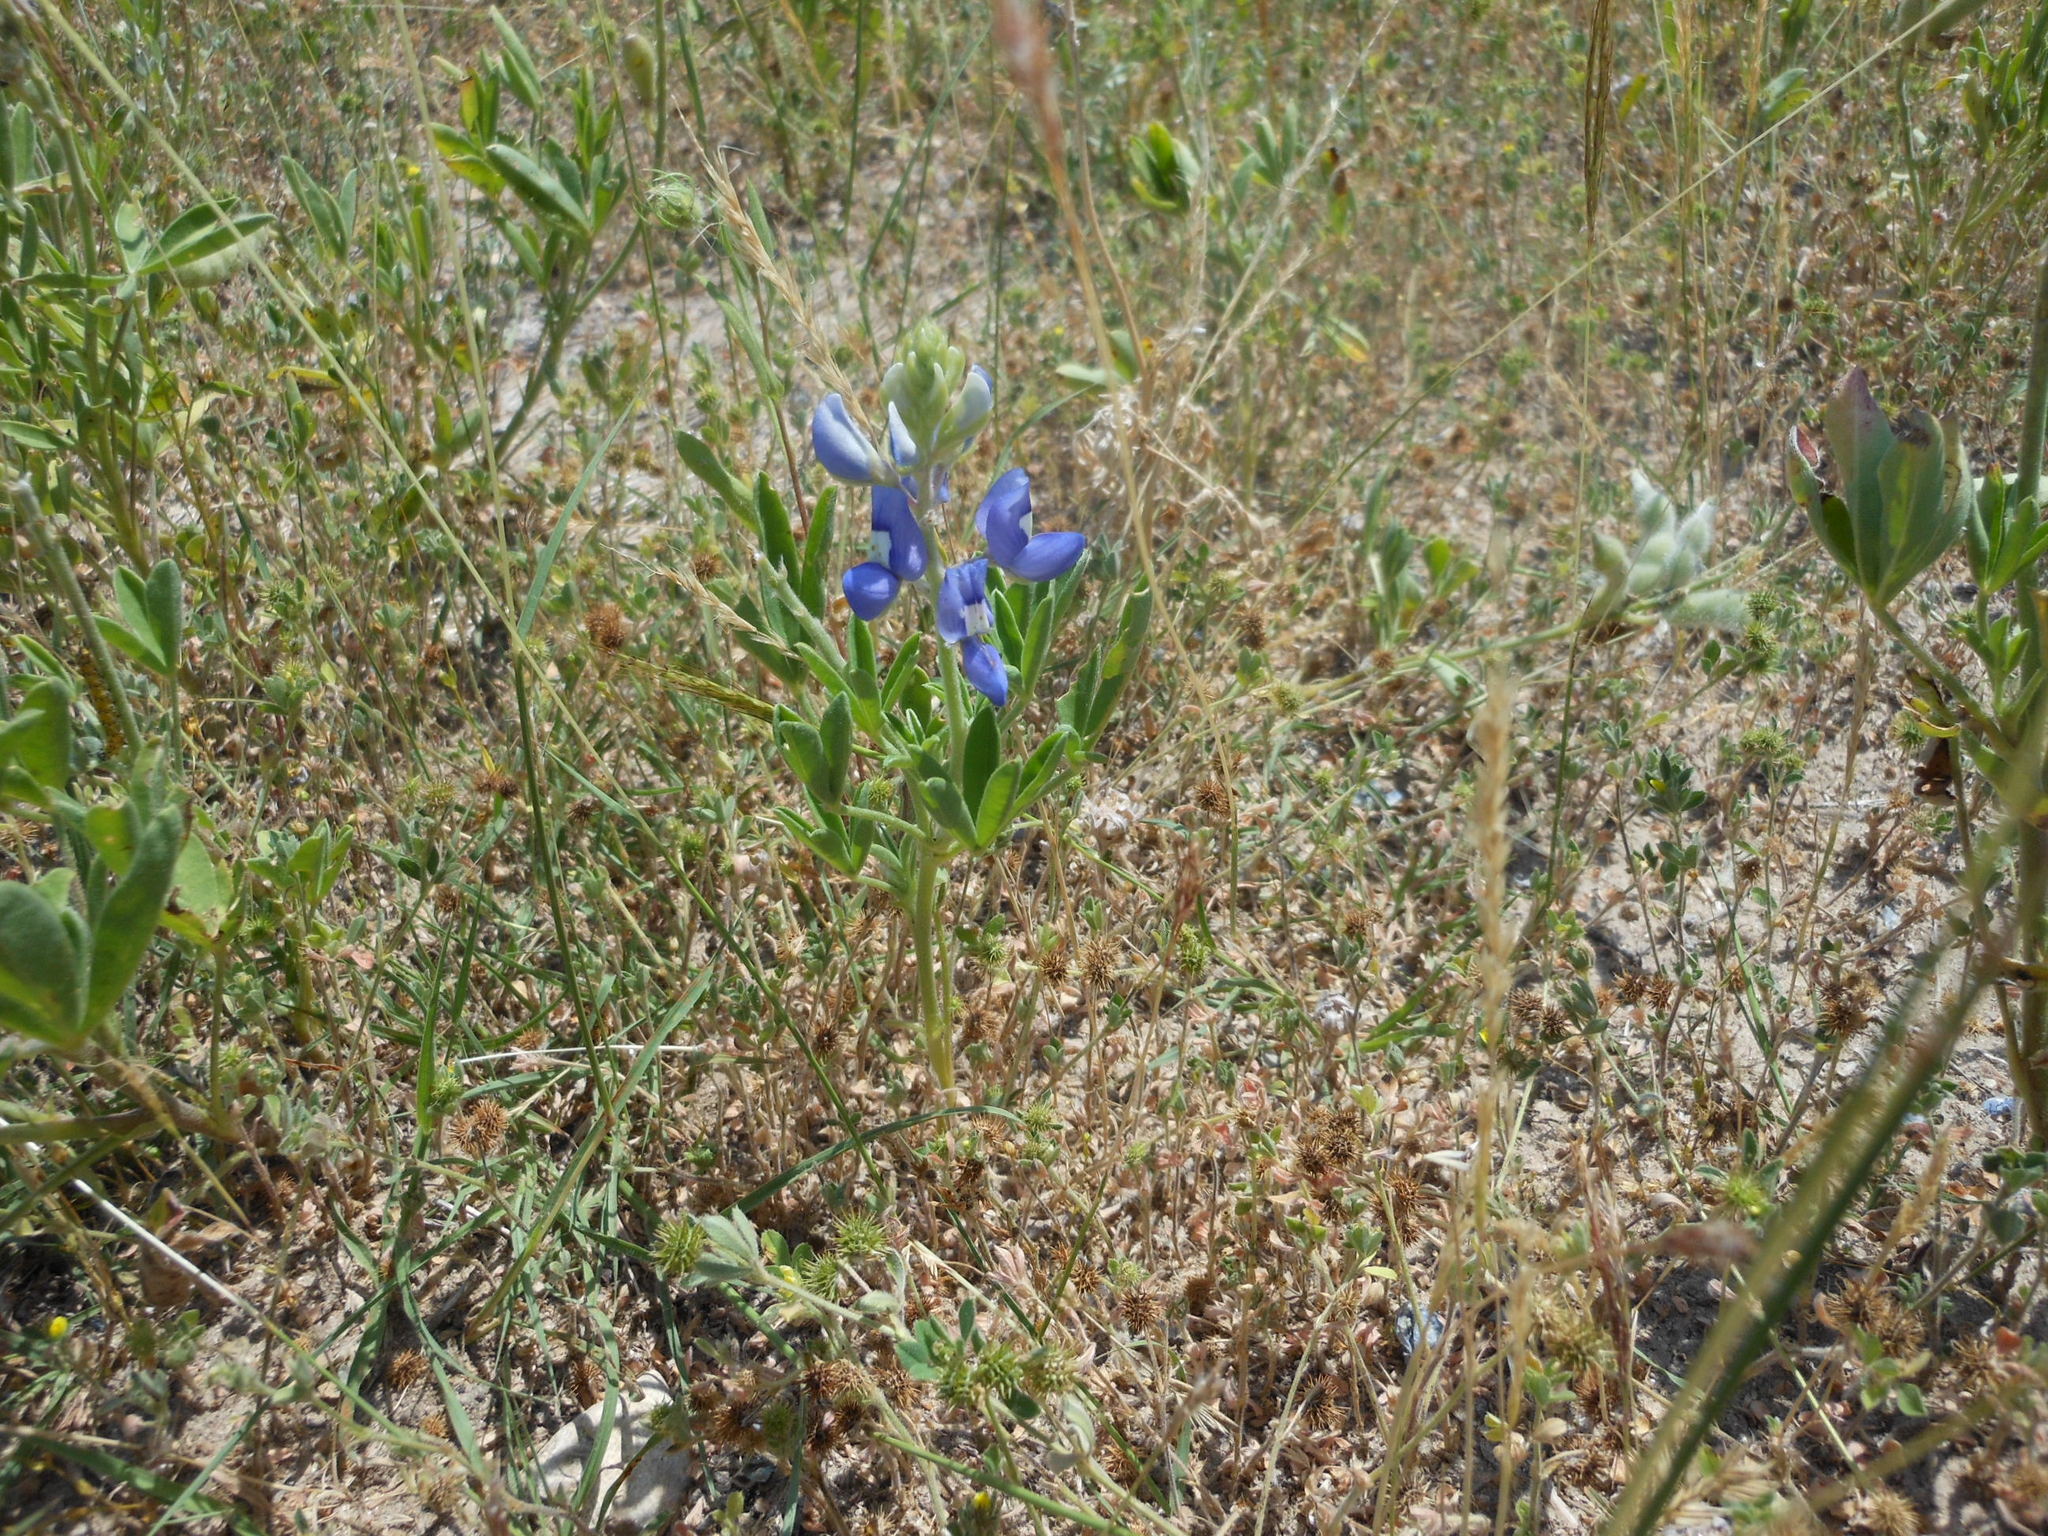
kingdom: Plantae
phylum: Tracheophyta
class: Magnoliopsida
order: Fabales
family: Fabaceae
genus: Lupinus
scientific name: Lupinus texensis
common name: Texas bluebonnet
